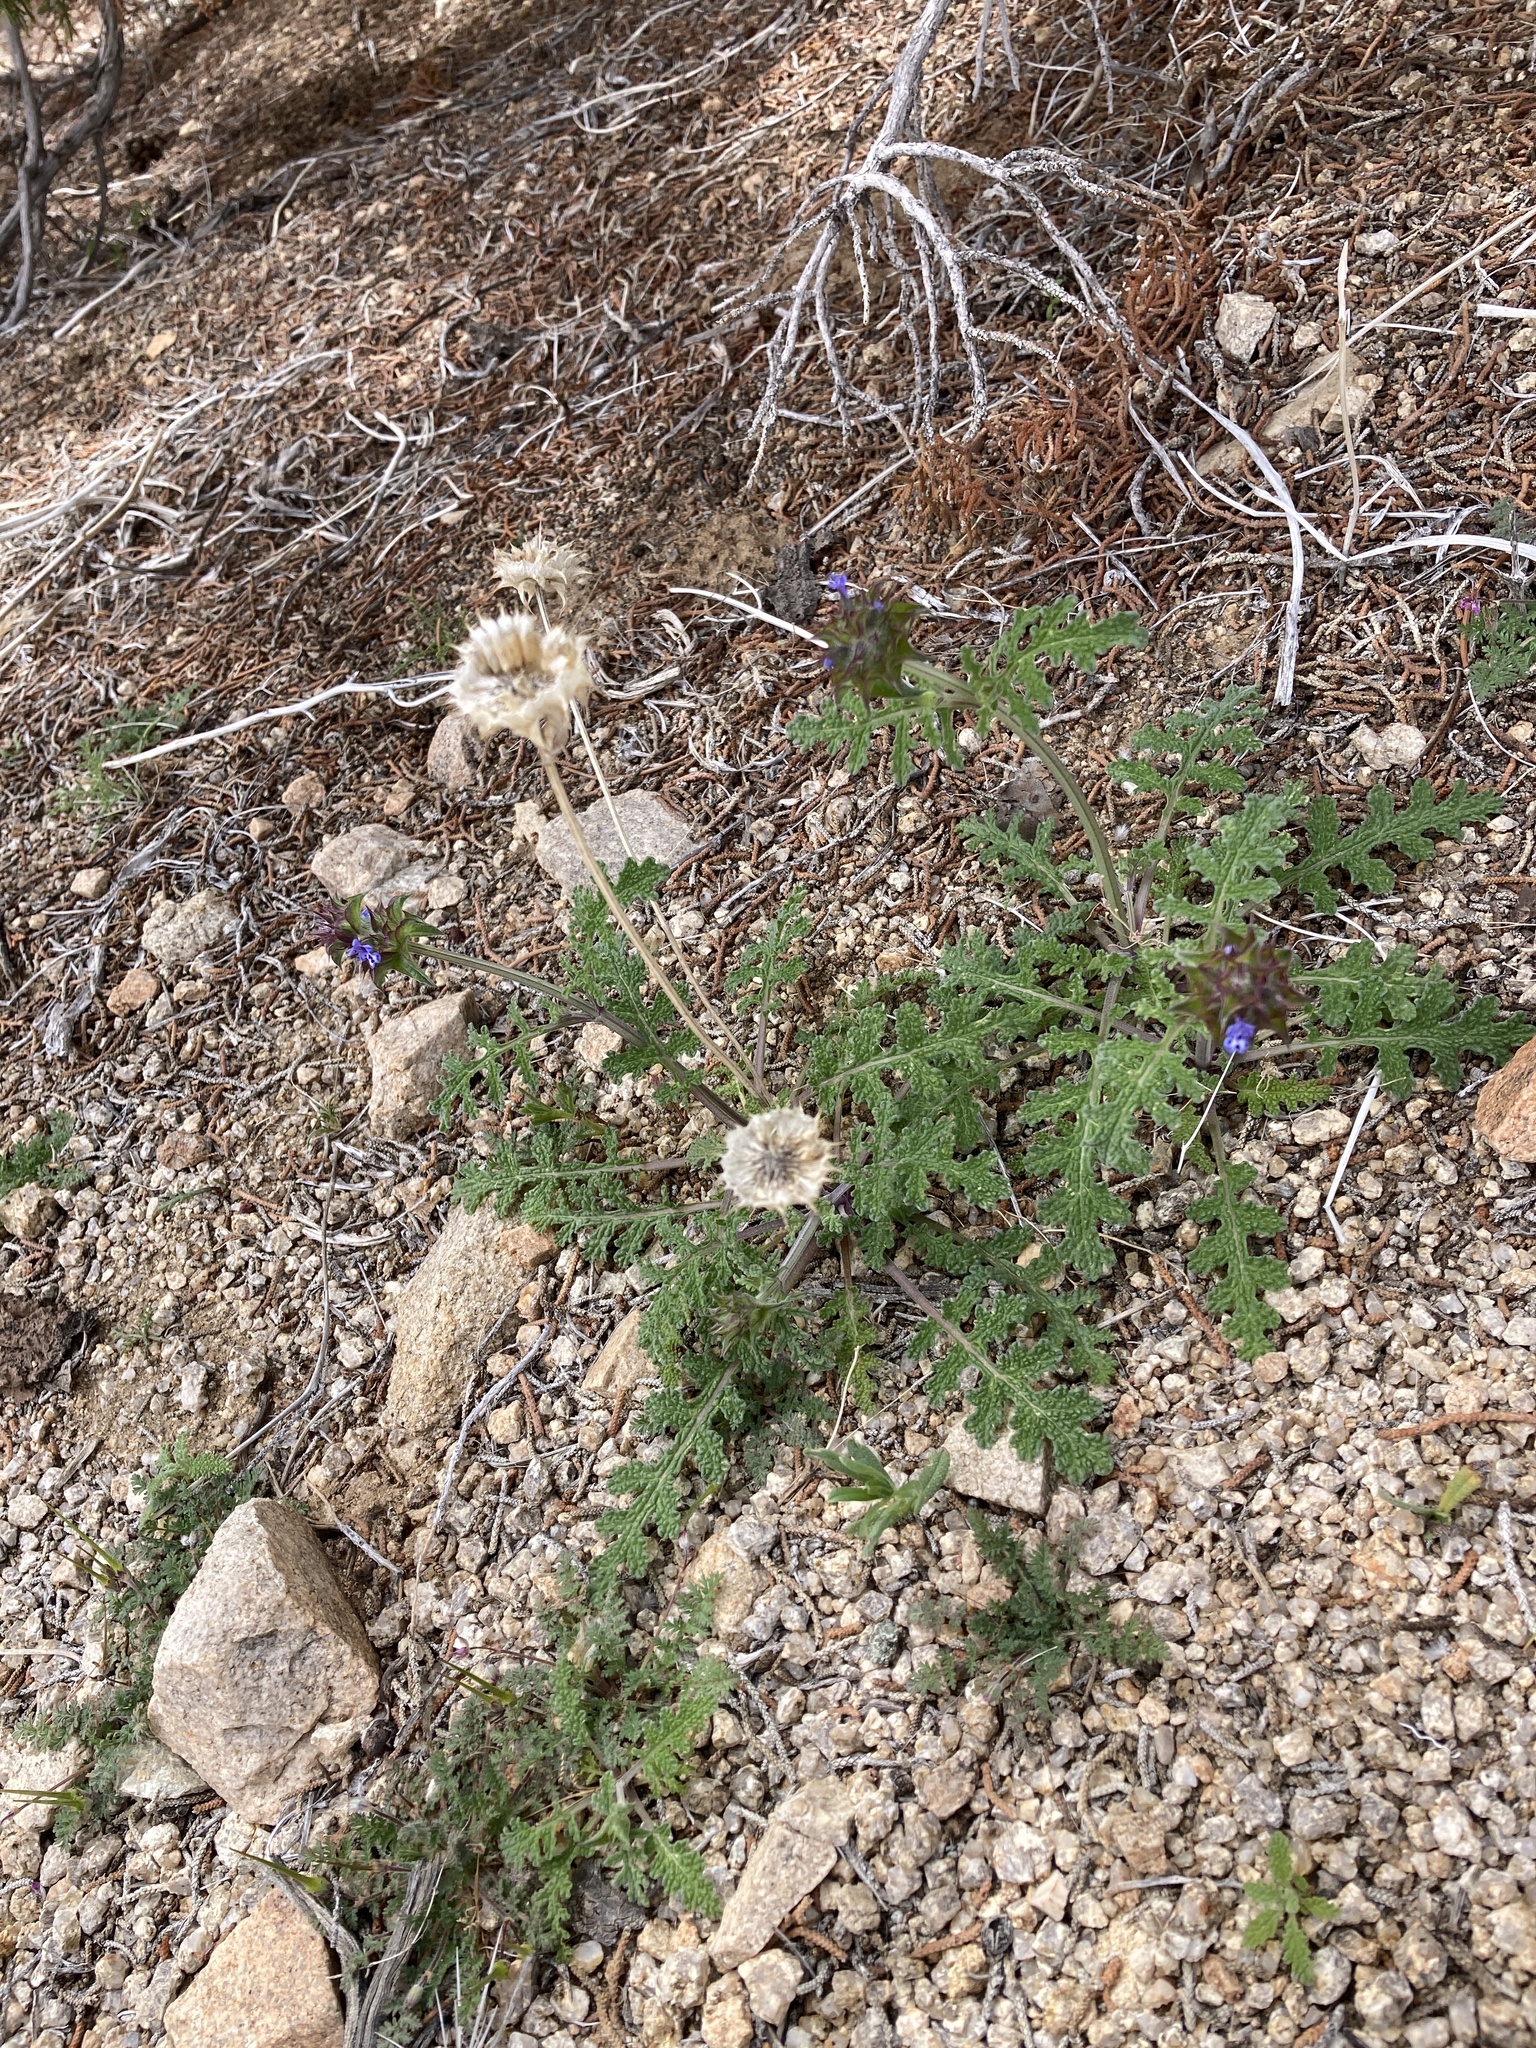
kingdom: Plantae
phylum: Tracheophyta
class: Magnoliopsida
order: Lamiales
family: Lamiaceae
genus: Salvia
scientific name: Salvia columbariae
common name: Chia
